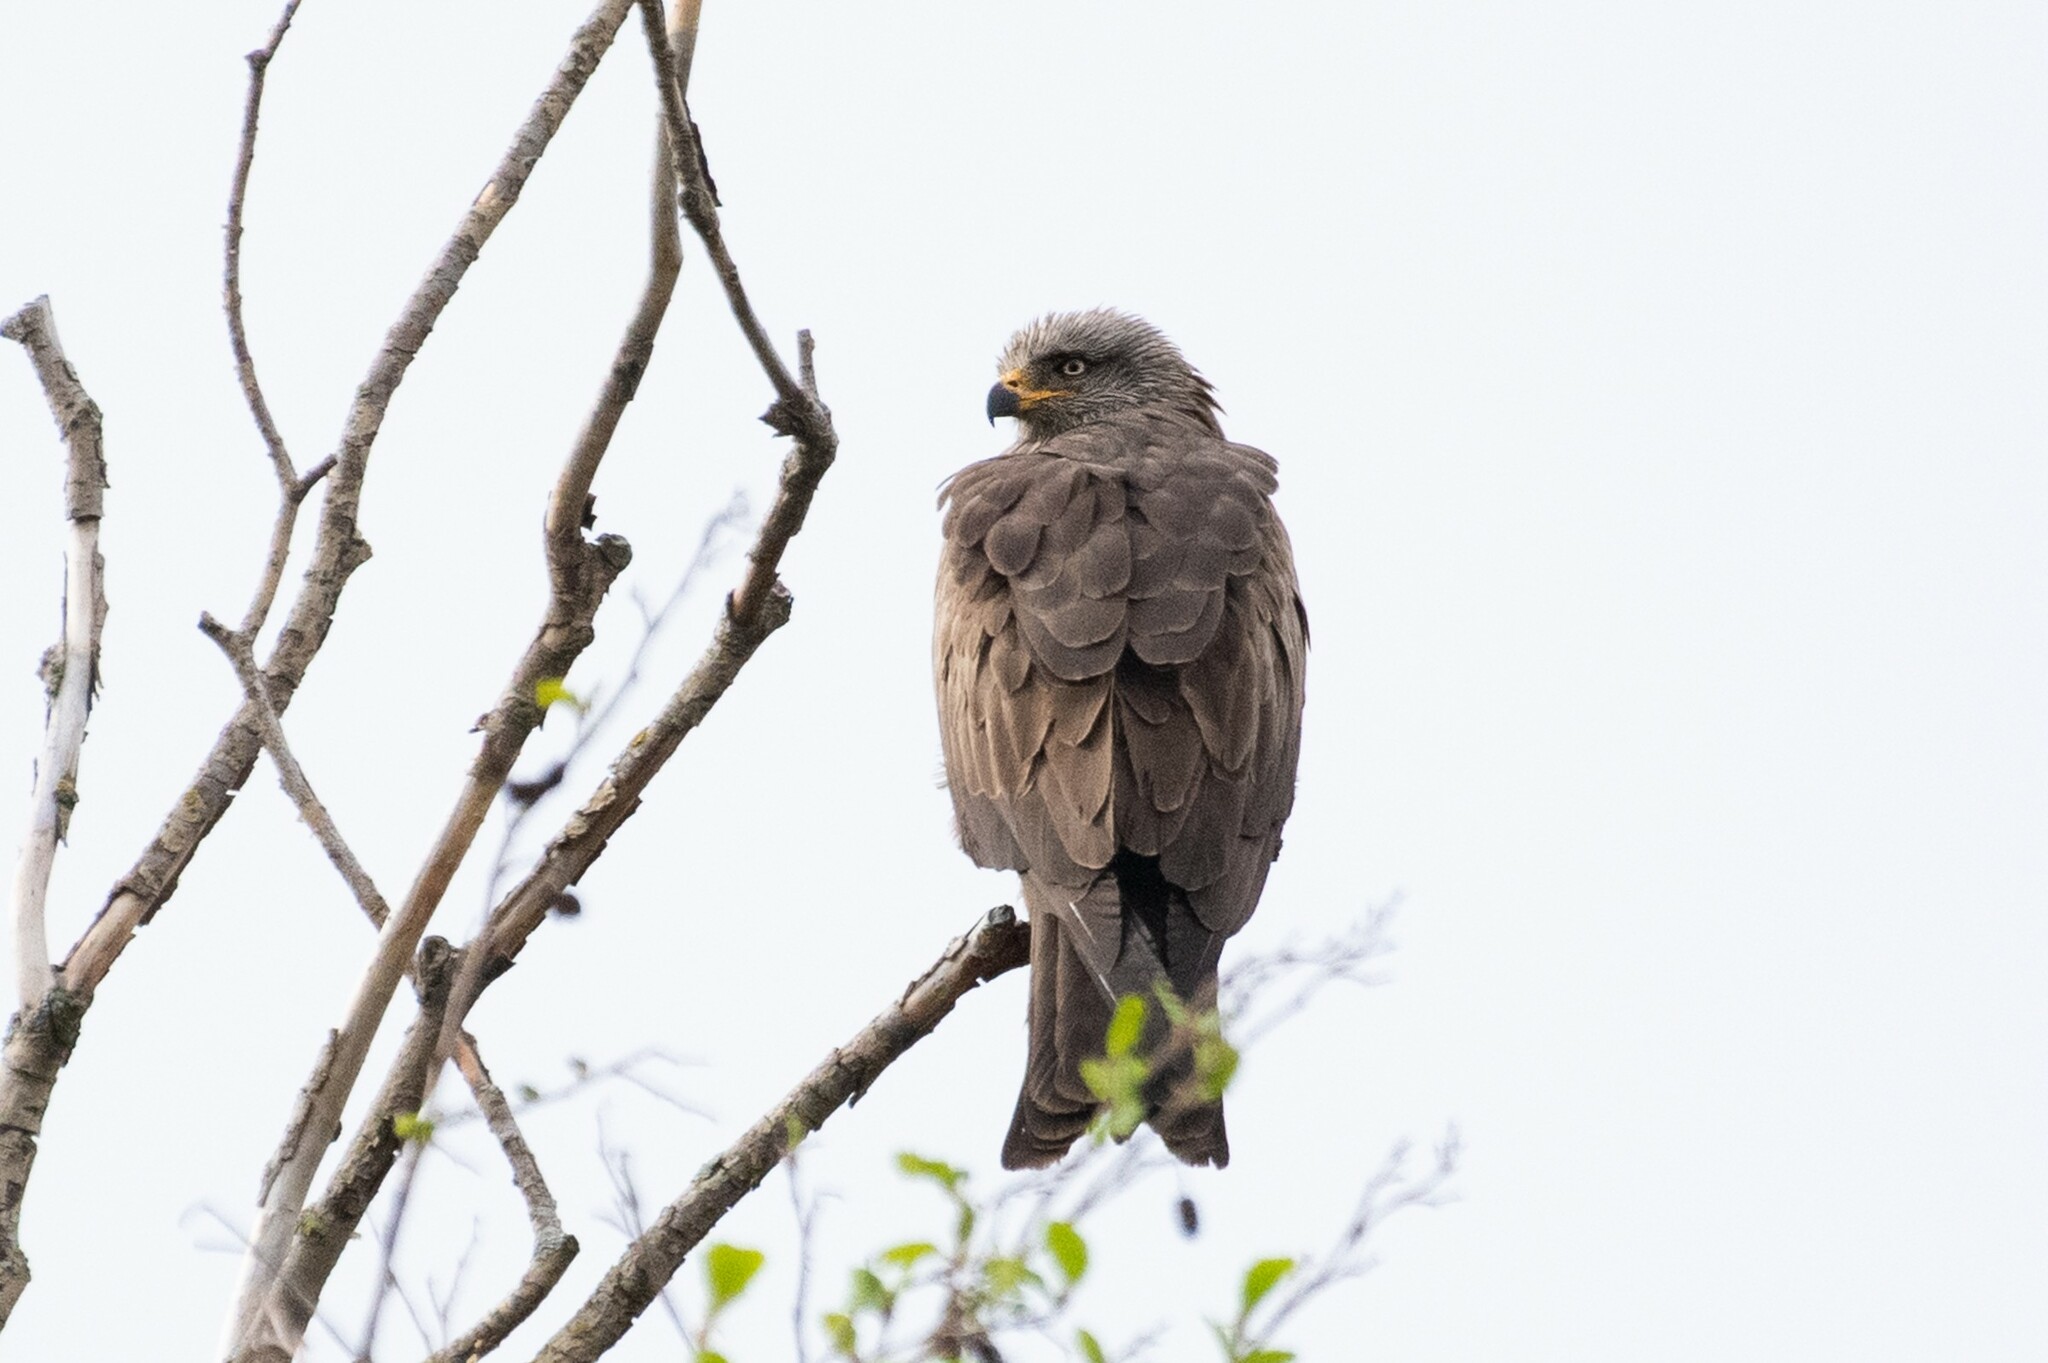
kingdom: Animalia
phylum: Chordata
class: Aves
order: Accipitriformes
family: Accipitridae
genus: Milvus
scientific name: Milvus migrans
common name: Black kite
